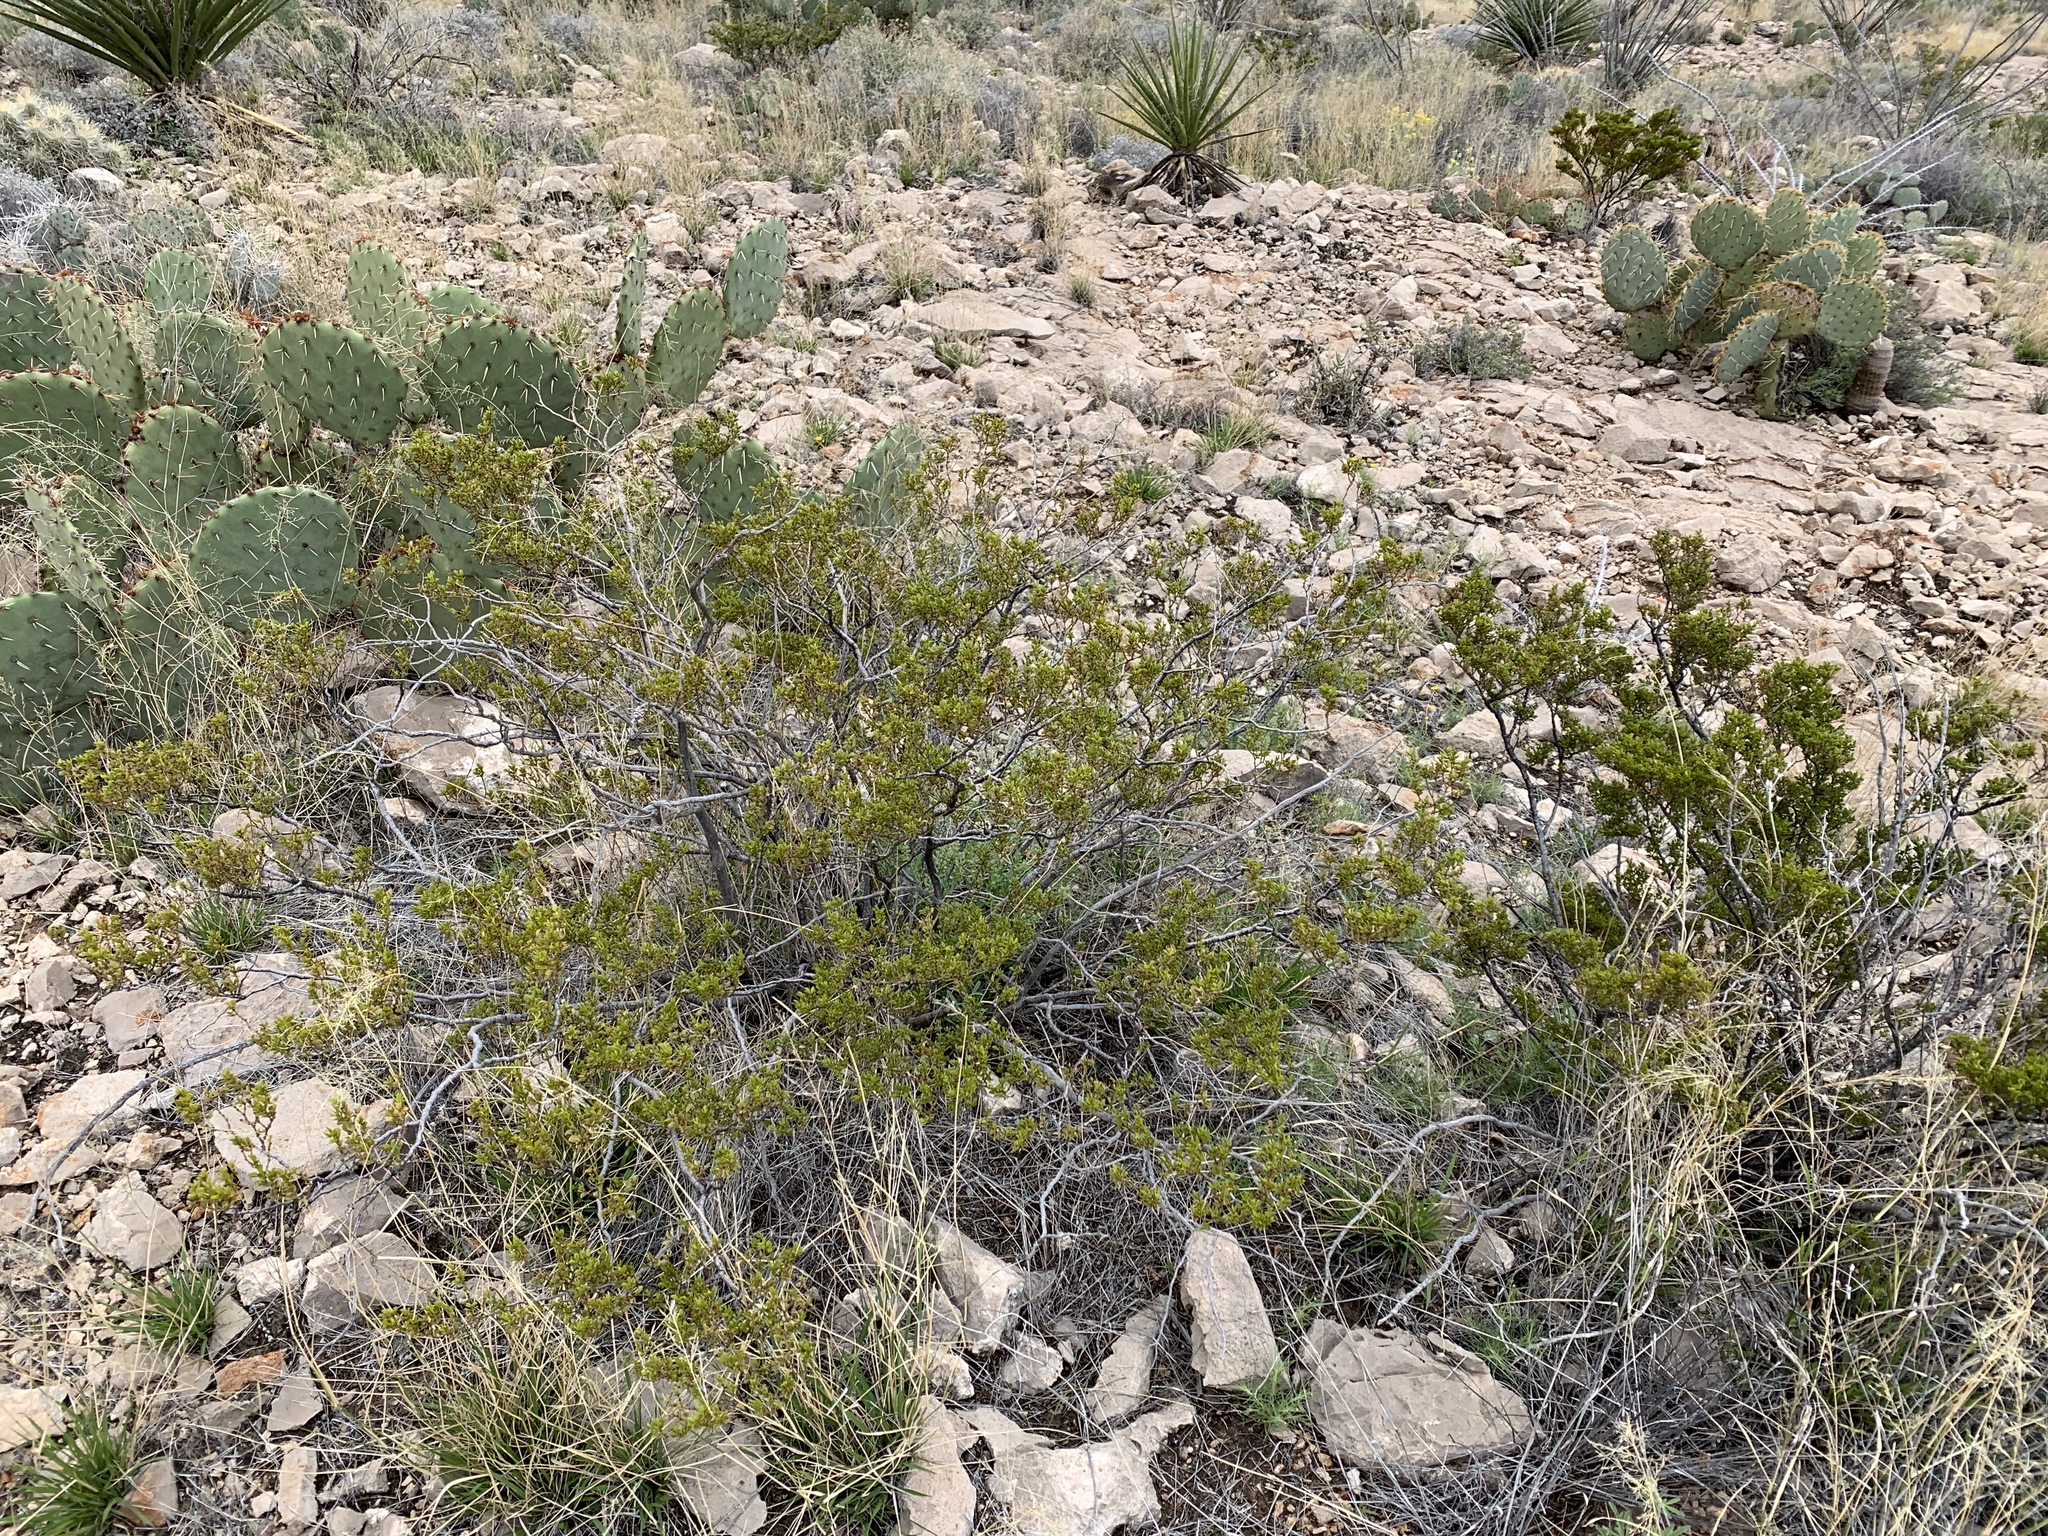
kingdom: Plantae
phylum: Tracheophyta
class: Magnoliopsida
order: Zygophyllales
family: Zygophyllaceae
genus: Larrea
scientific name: Larrea tridentata
